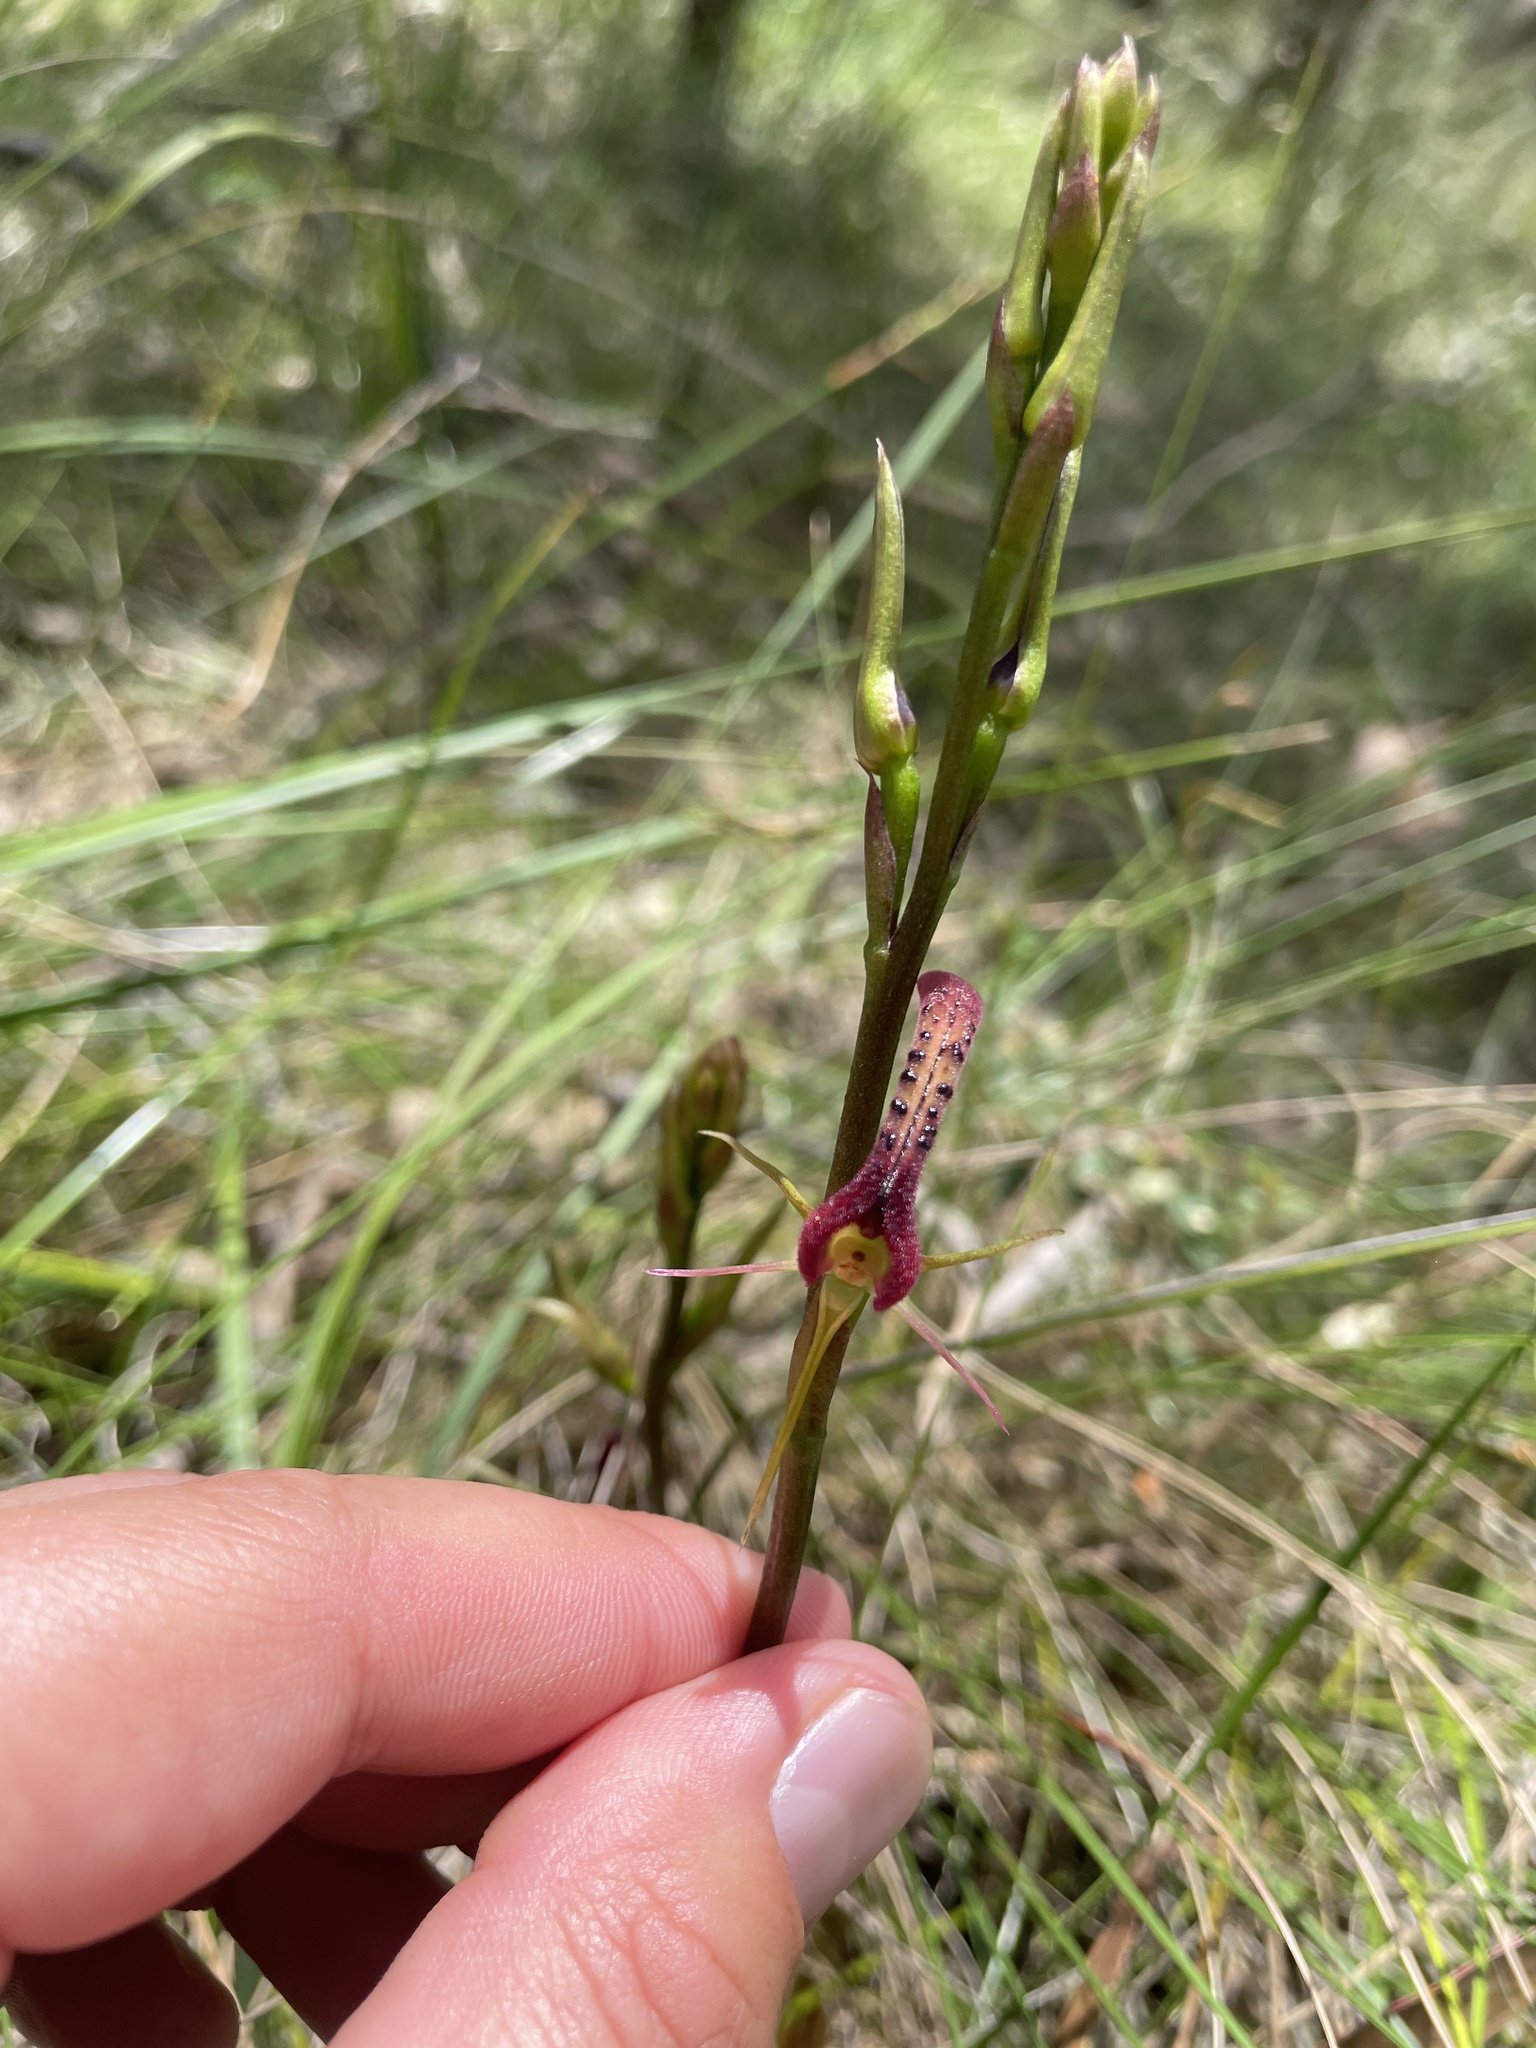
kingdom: Plantae
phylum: Tracheophyta
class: Liliopsida
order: Asparagales
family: Orchidaceae
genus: Cryptostylis
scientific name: Cryptostylis leptochila
